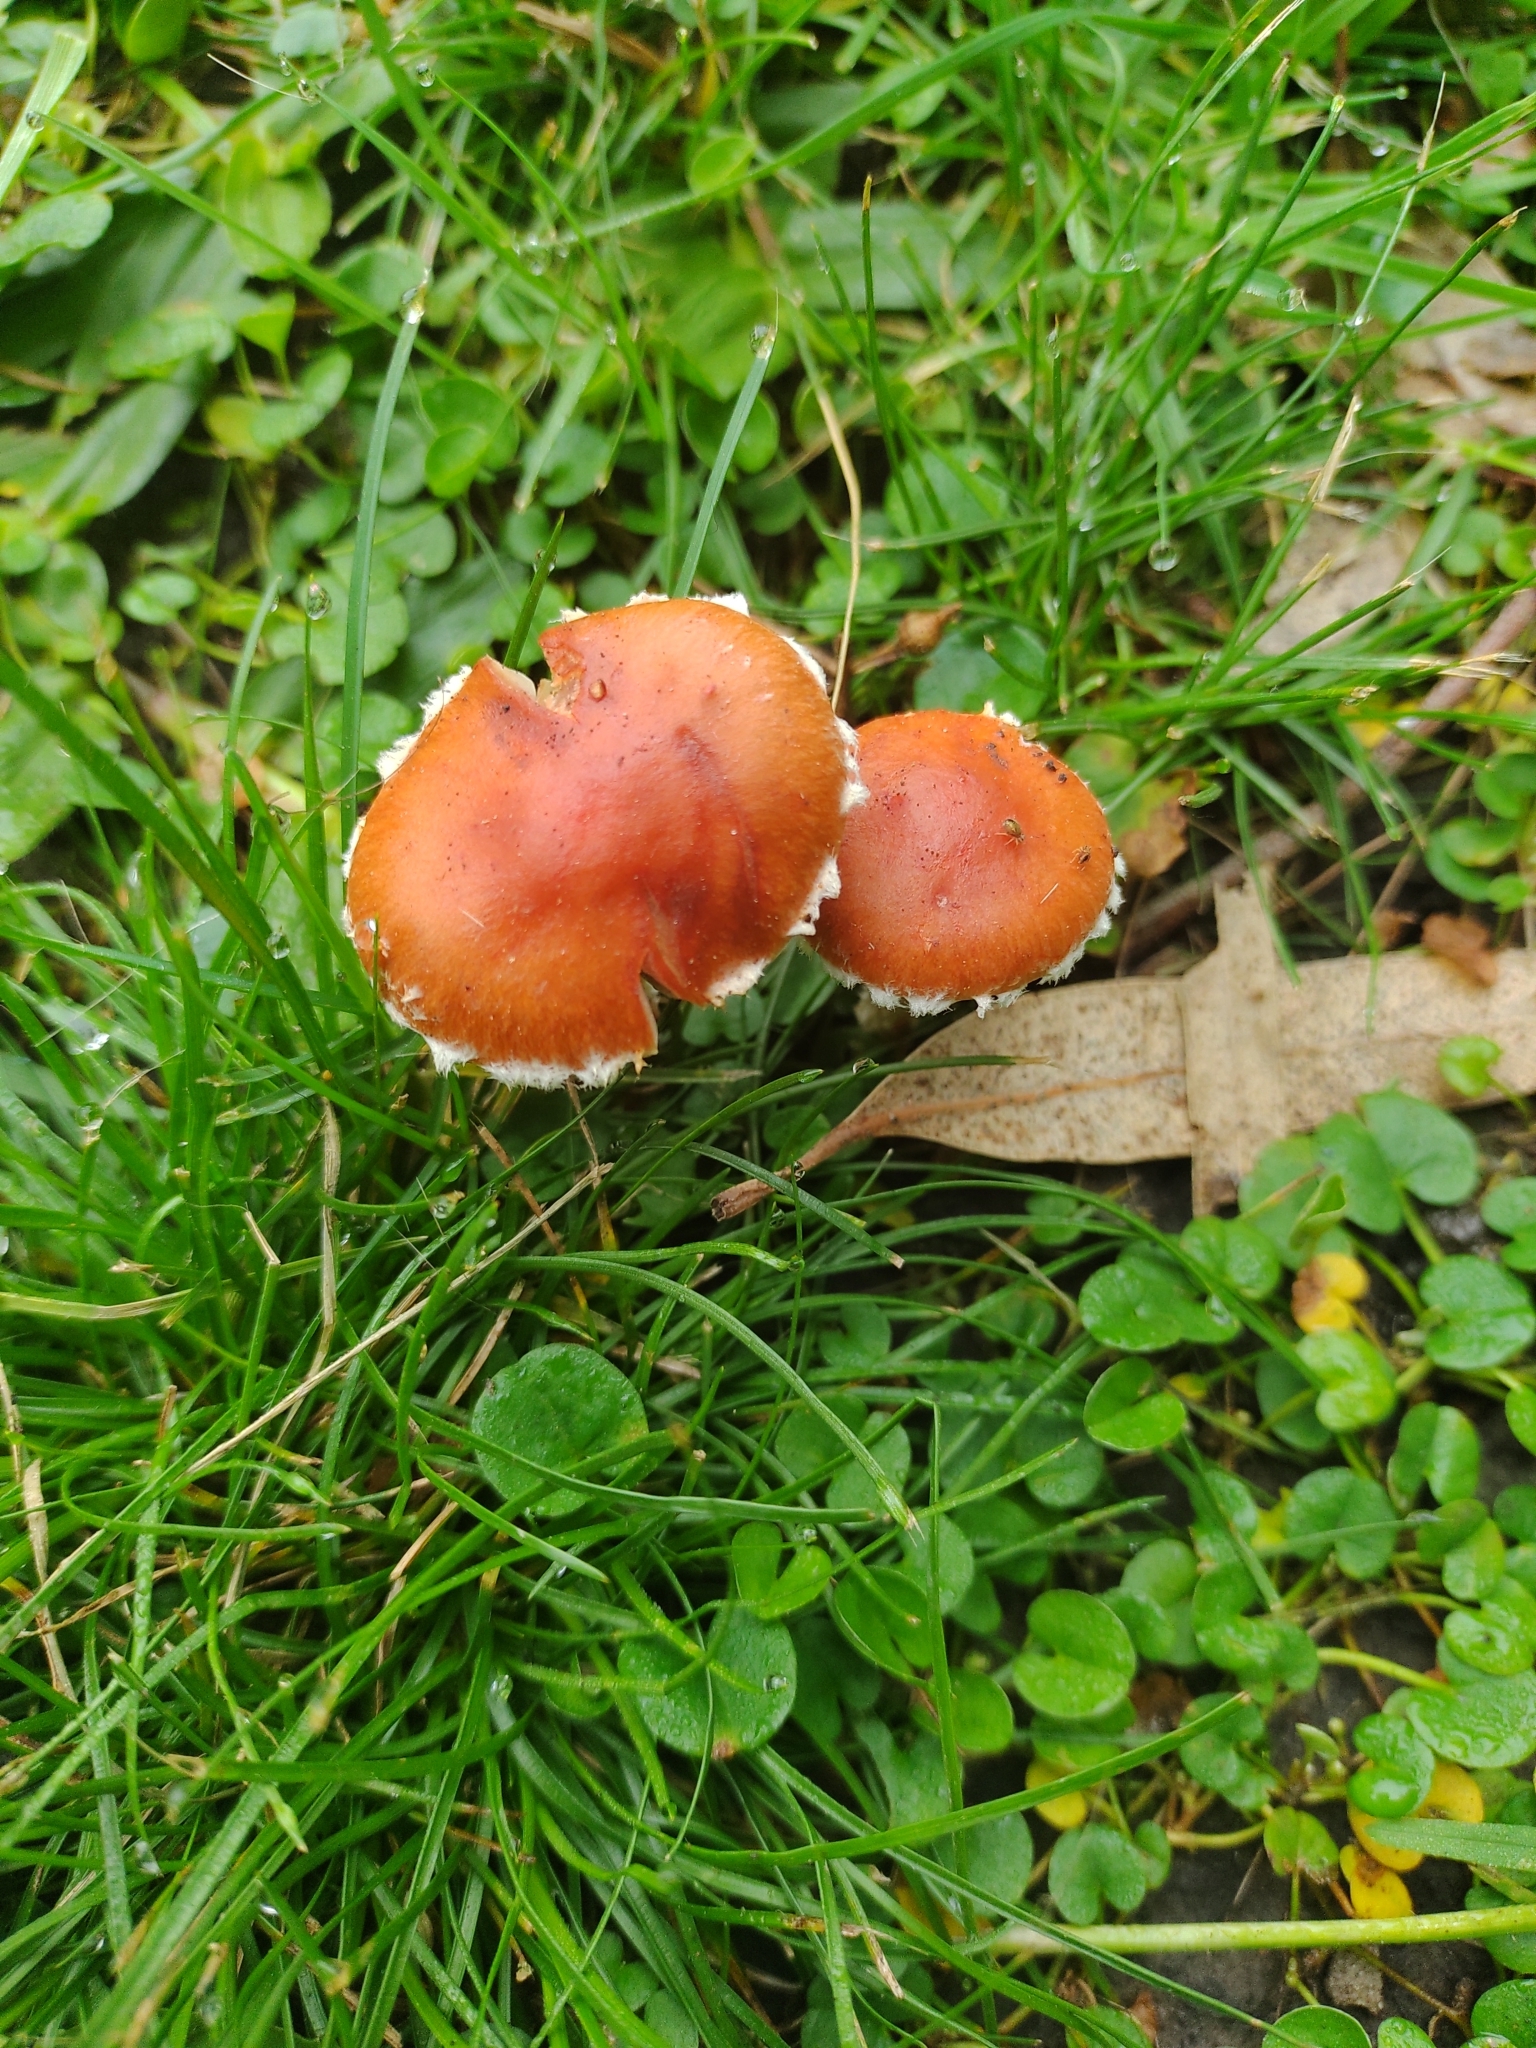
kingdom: Fungi
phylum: Basidiomycota
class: Agaricomycetes
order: Agaricales
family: Strophariaceae
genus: Leratiomyces
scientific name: Leratiomyces ceres
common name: Redlead roundhead
